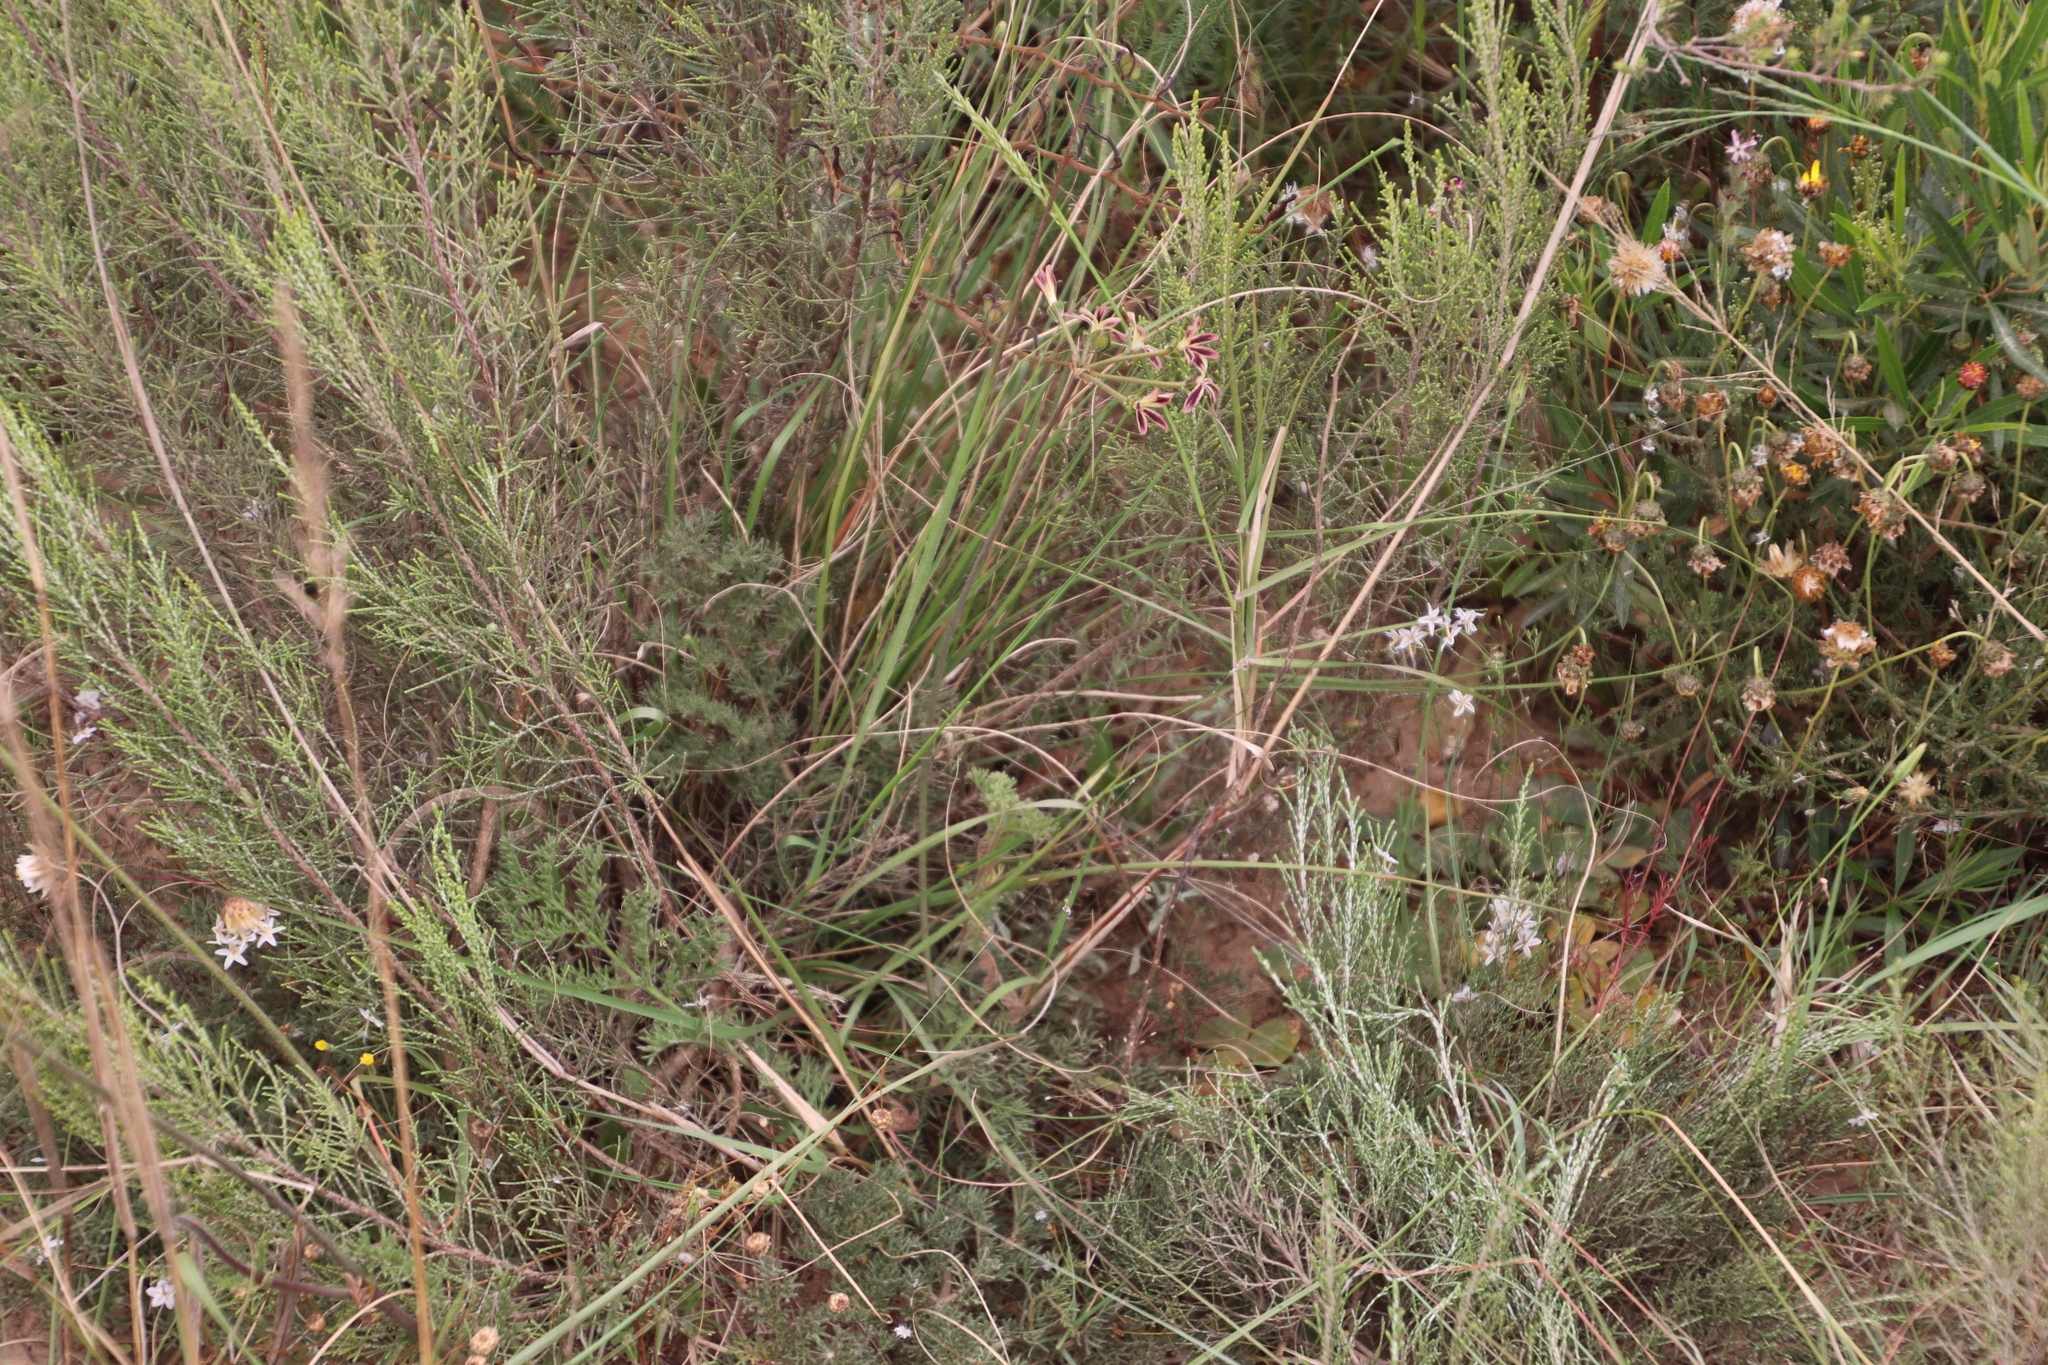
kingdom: Plantae
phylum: Tracheophyta
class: Magnoliopsida
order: Geraniales
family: Geraniaceae
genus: Pelargonium
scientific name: Pelargonium triste
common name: Night-scent pelargonium
